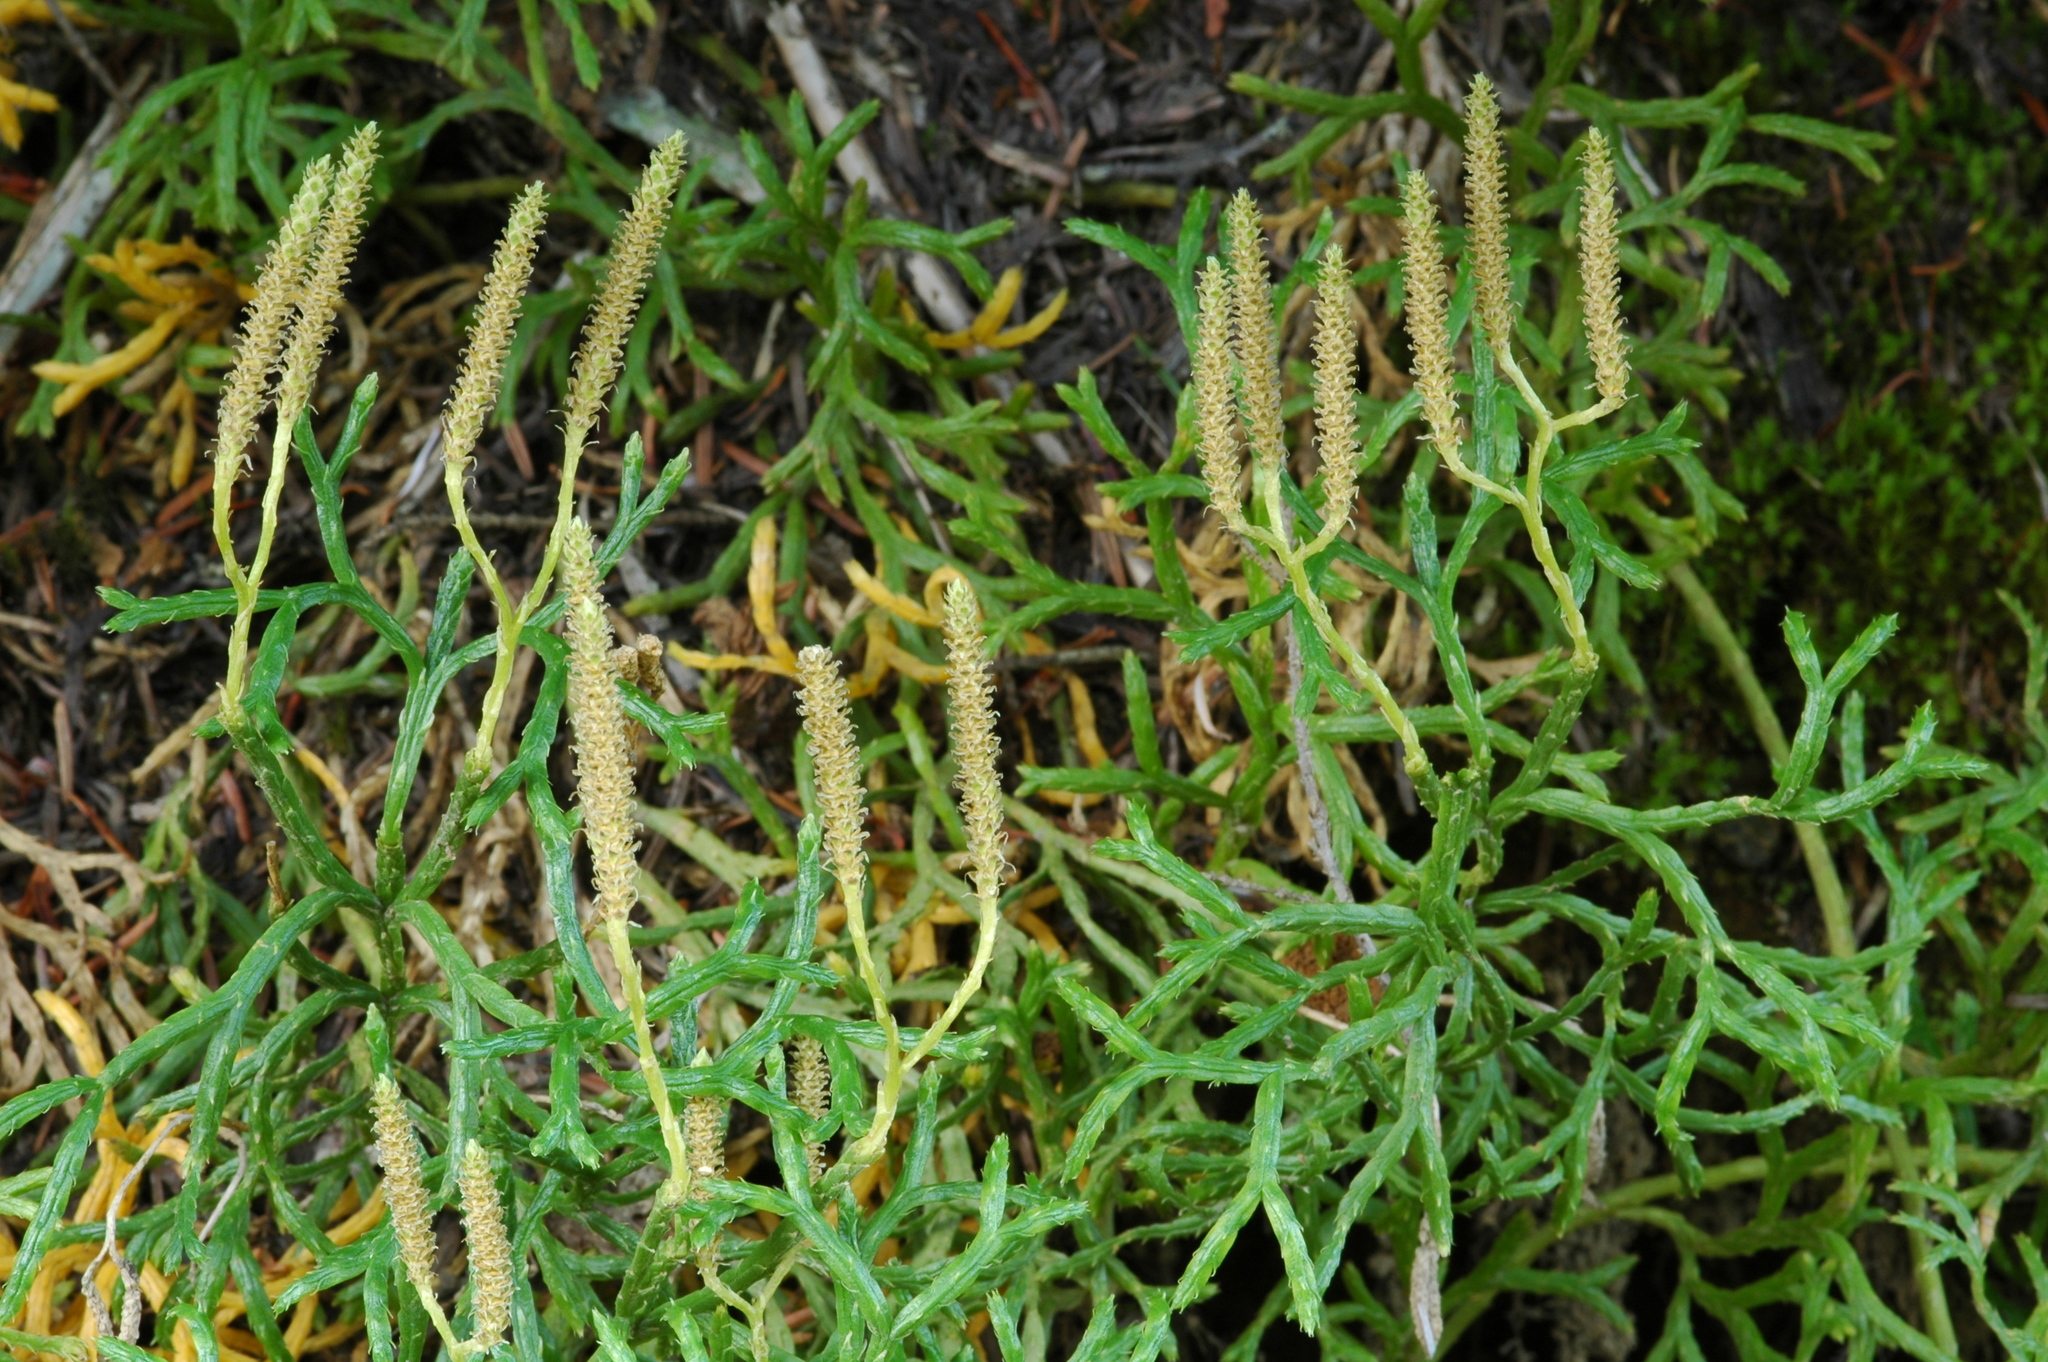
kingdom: Plantae
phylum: Tracheophyta
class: Lycopodiopsida
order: Lycopodiales
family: Lycopodiaceae
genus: Diphasiastrum
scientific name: Diphasiastrum complanatum
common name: Northern running-pine
